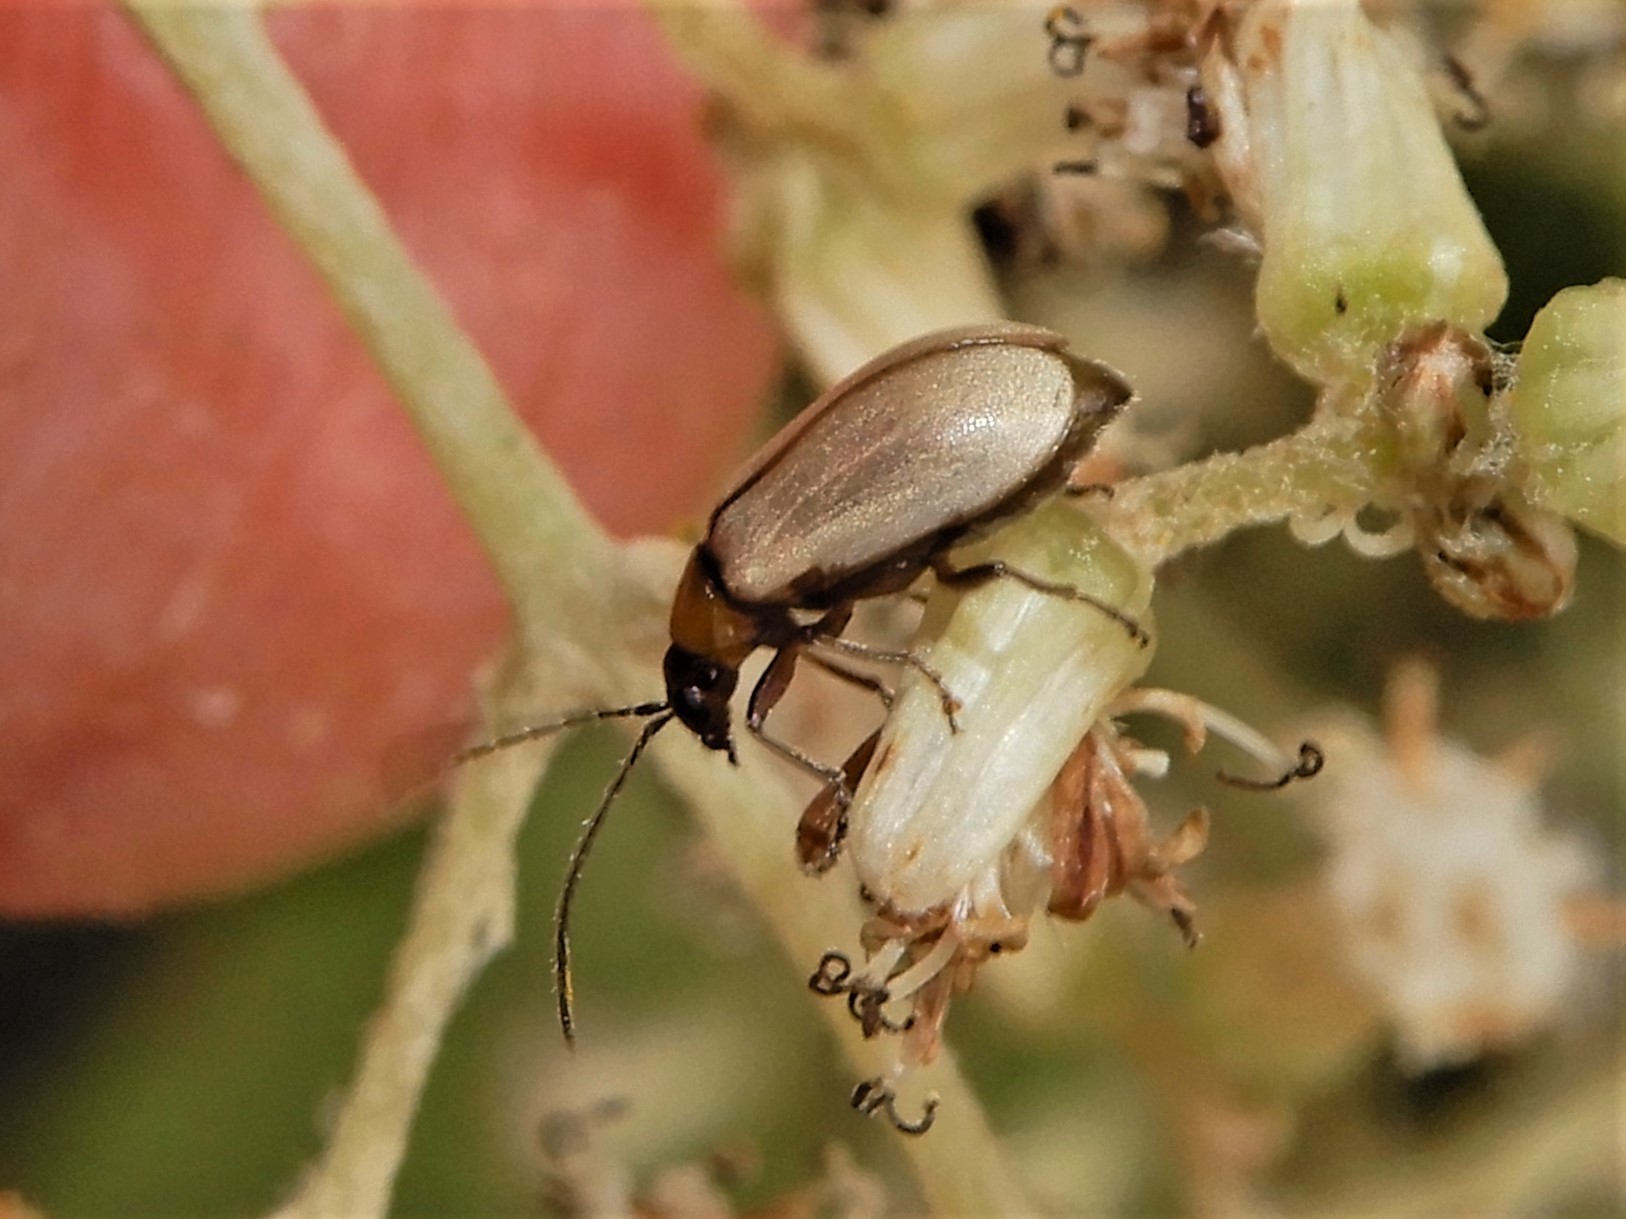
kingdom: Animalia
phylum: Arthropoda
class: Insecta
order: Coleoptera
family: Chrysomelidae
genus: Adoxia
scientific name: Adoxia
